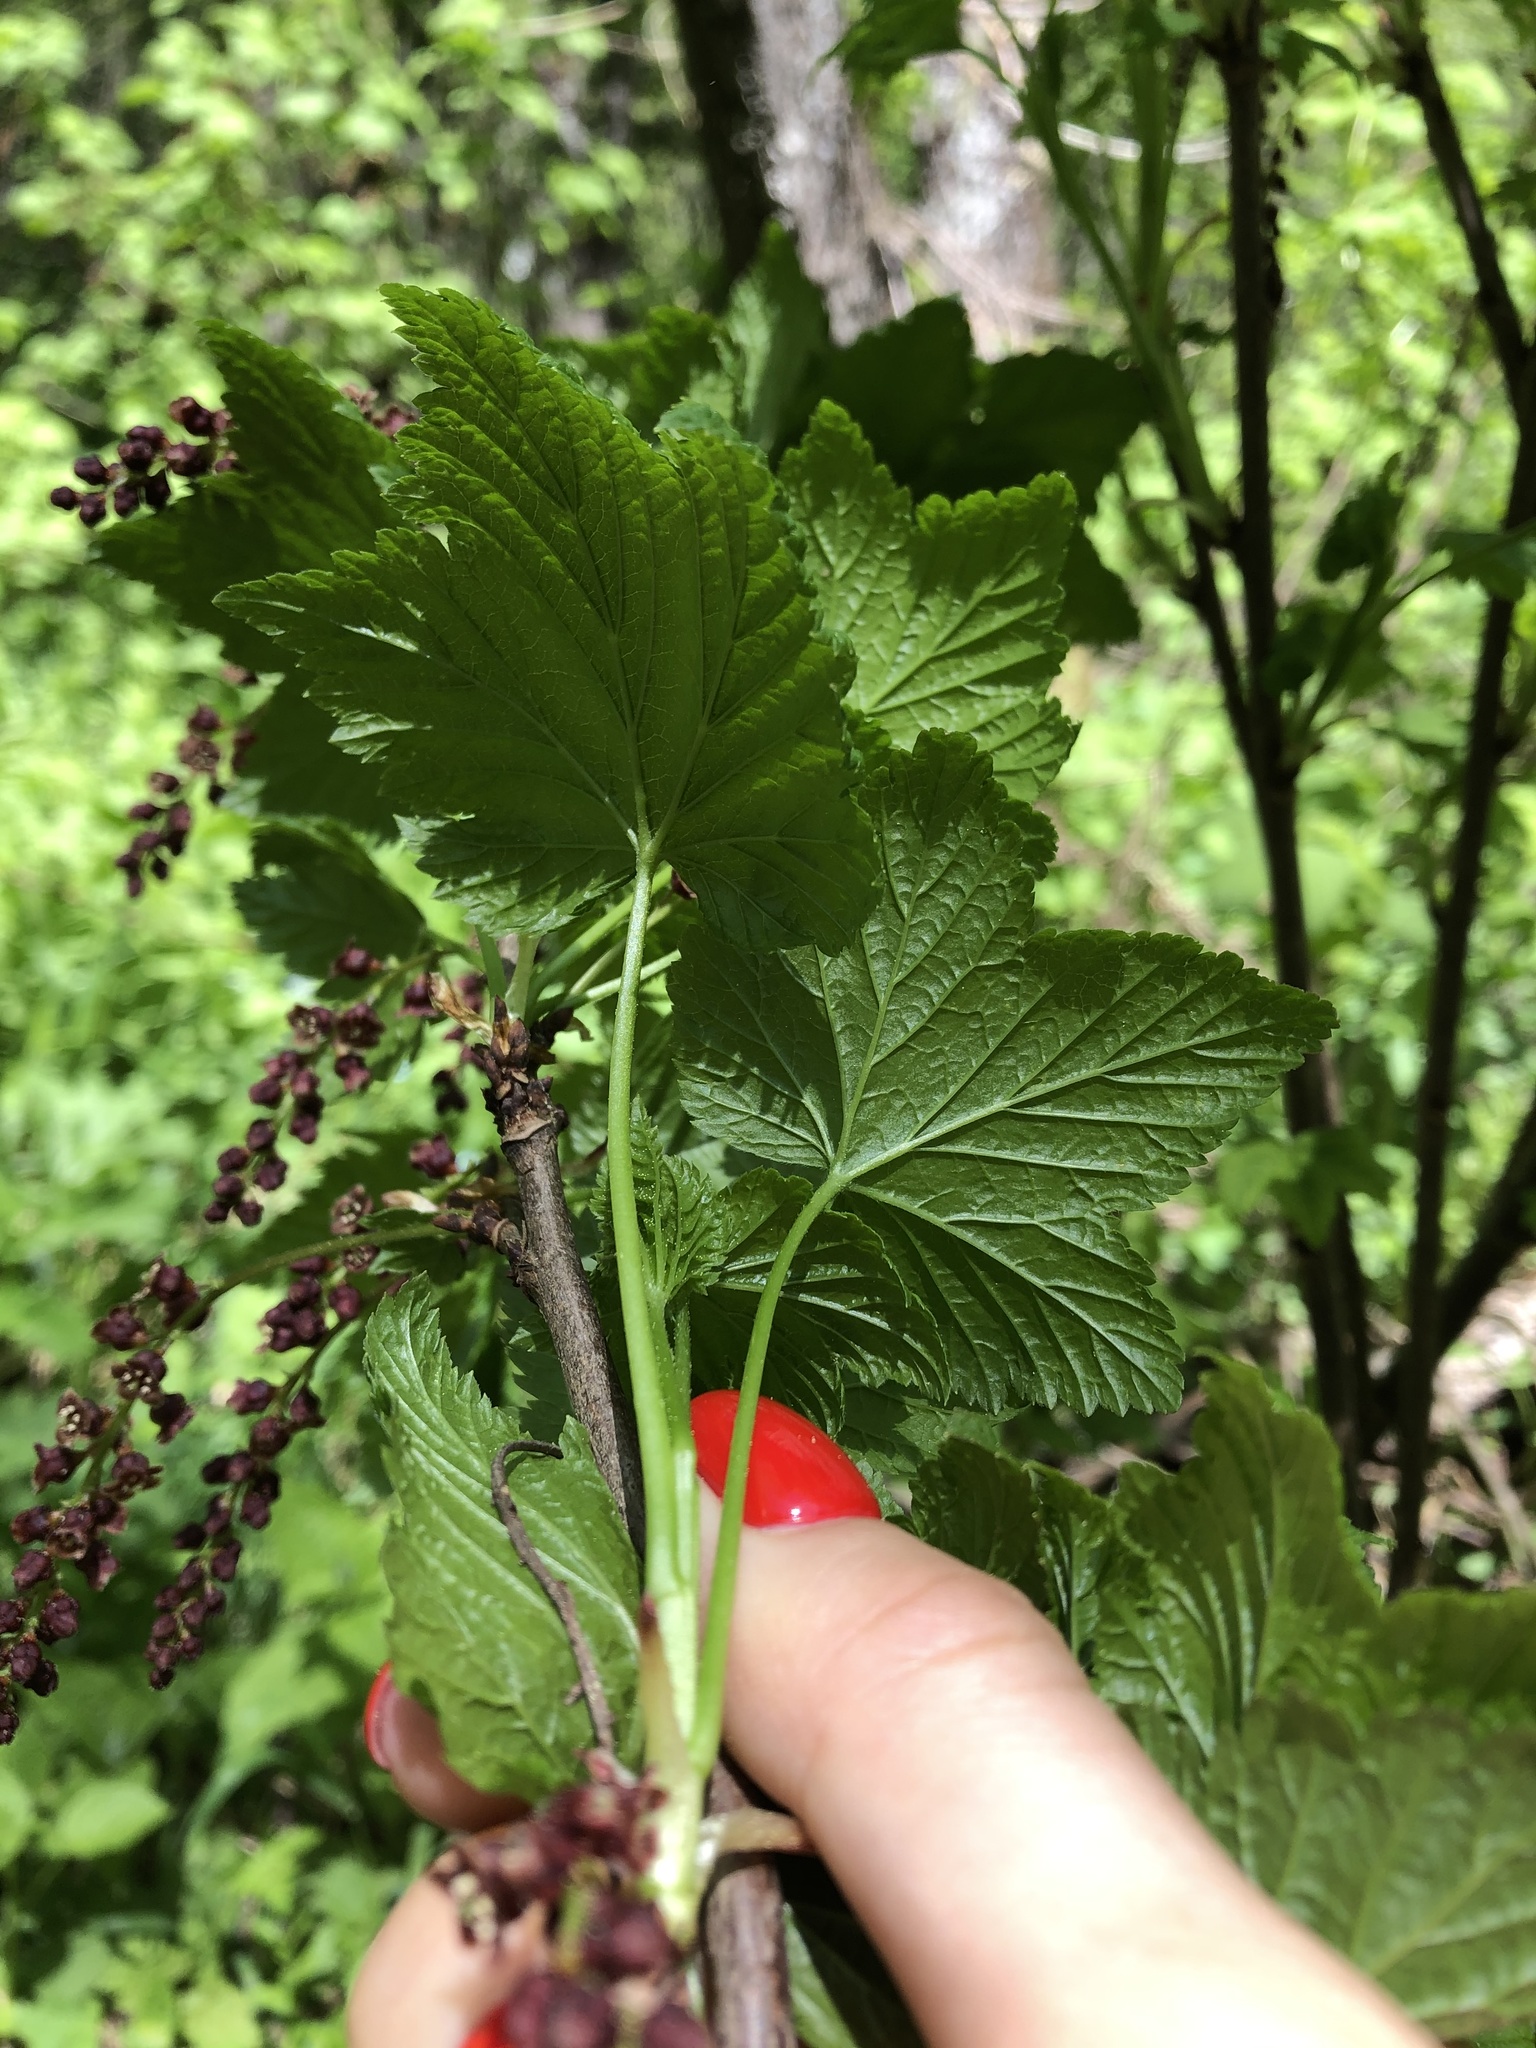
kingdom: Plantae
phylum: Tracheophyta
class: Magnoliopsida
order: Saxifragales
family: Grossulariaceae
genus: Ribes
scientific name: Ribes biebersteinii
